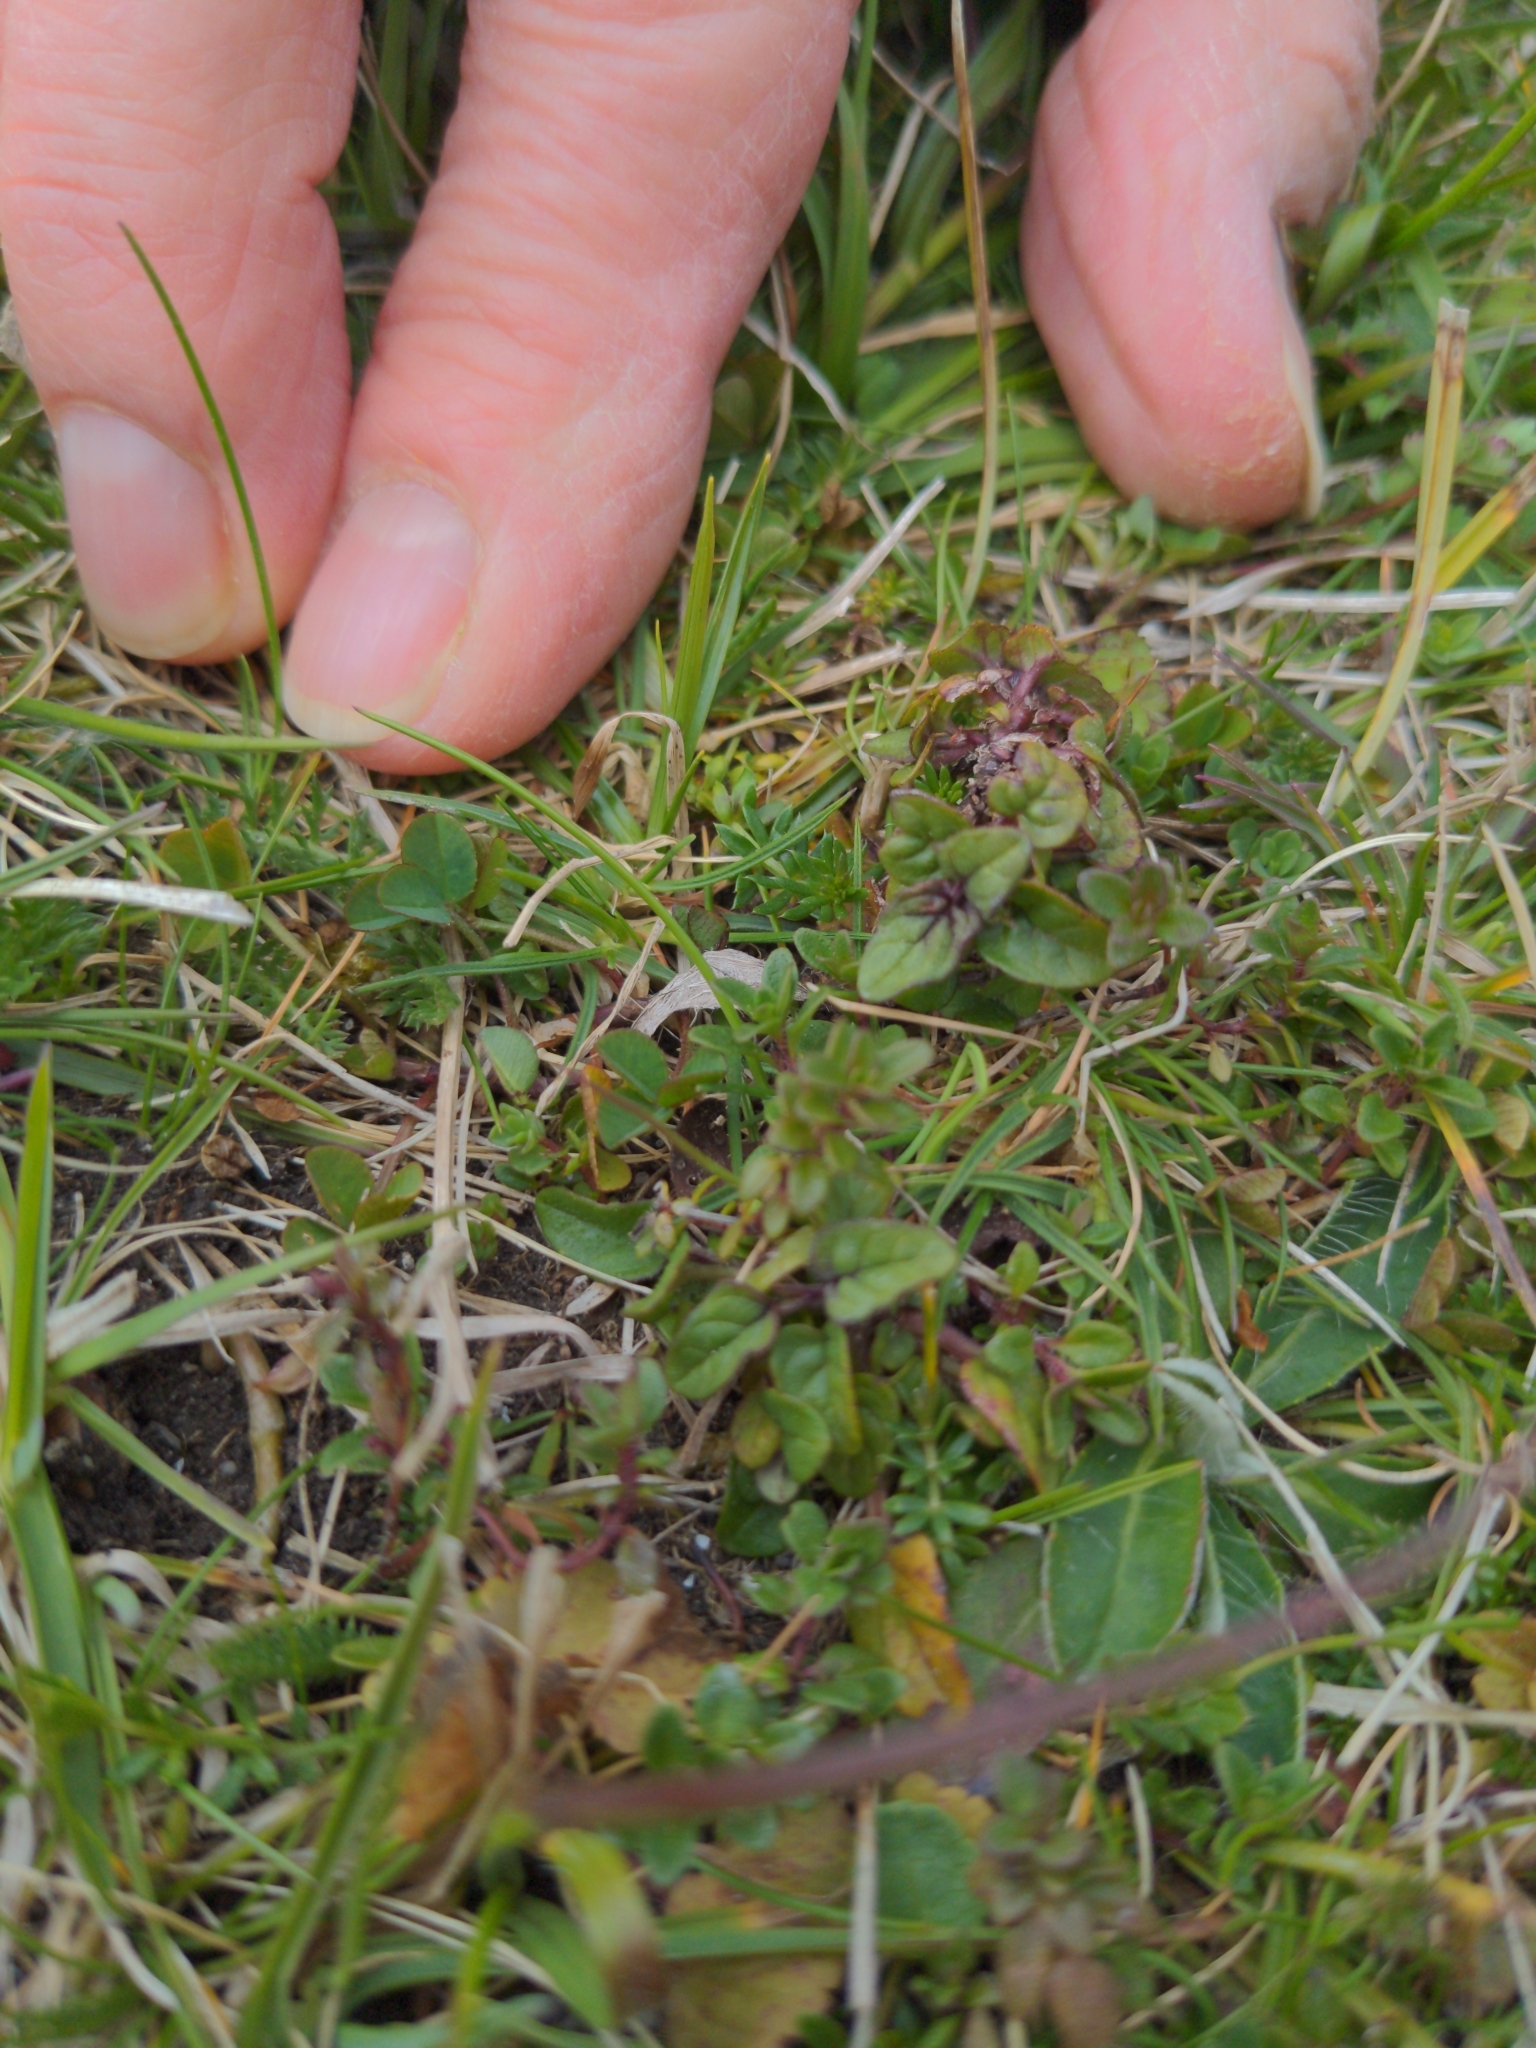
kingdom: Plantae
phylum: Tracheophyta
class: Magnoliopsida
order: Lamiales
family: Lamiaceae
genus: Thymus
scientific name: Thymus praecox
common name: Wild thyme
